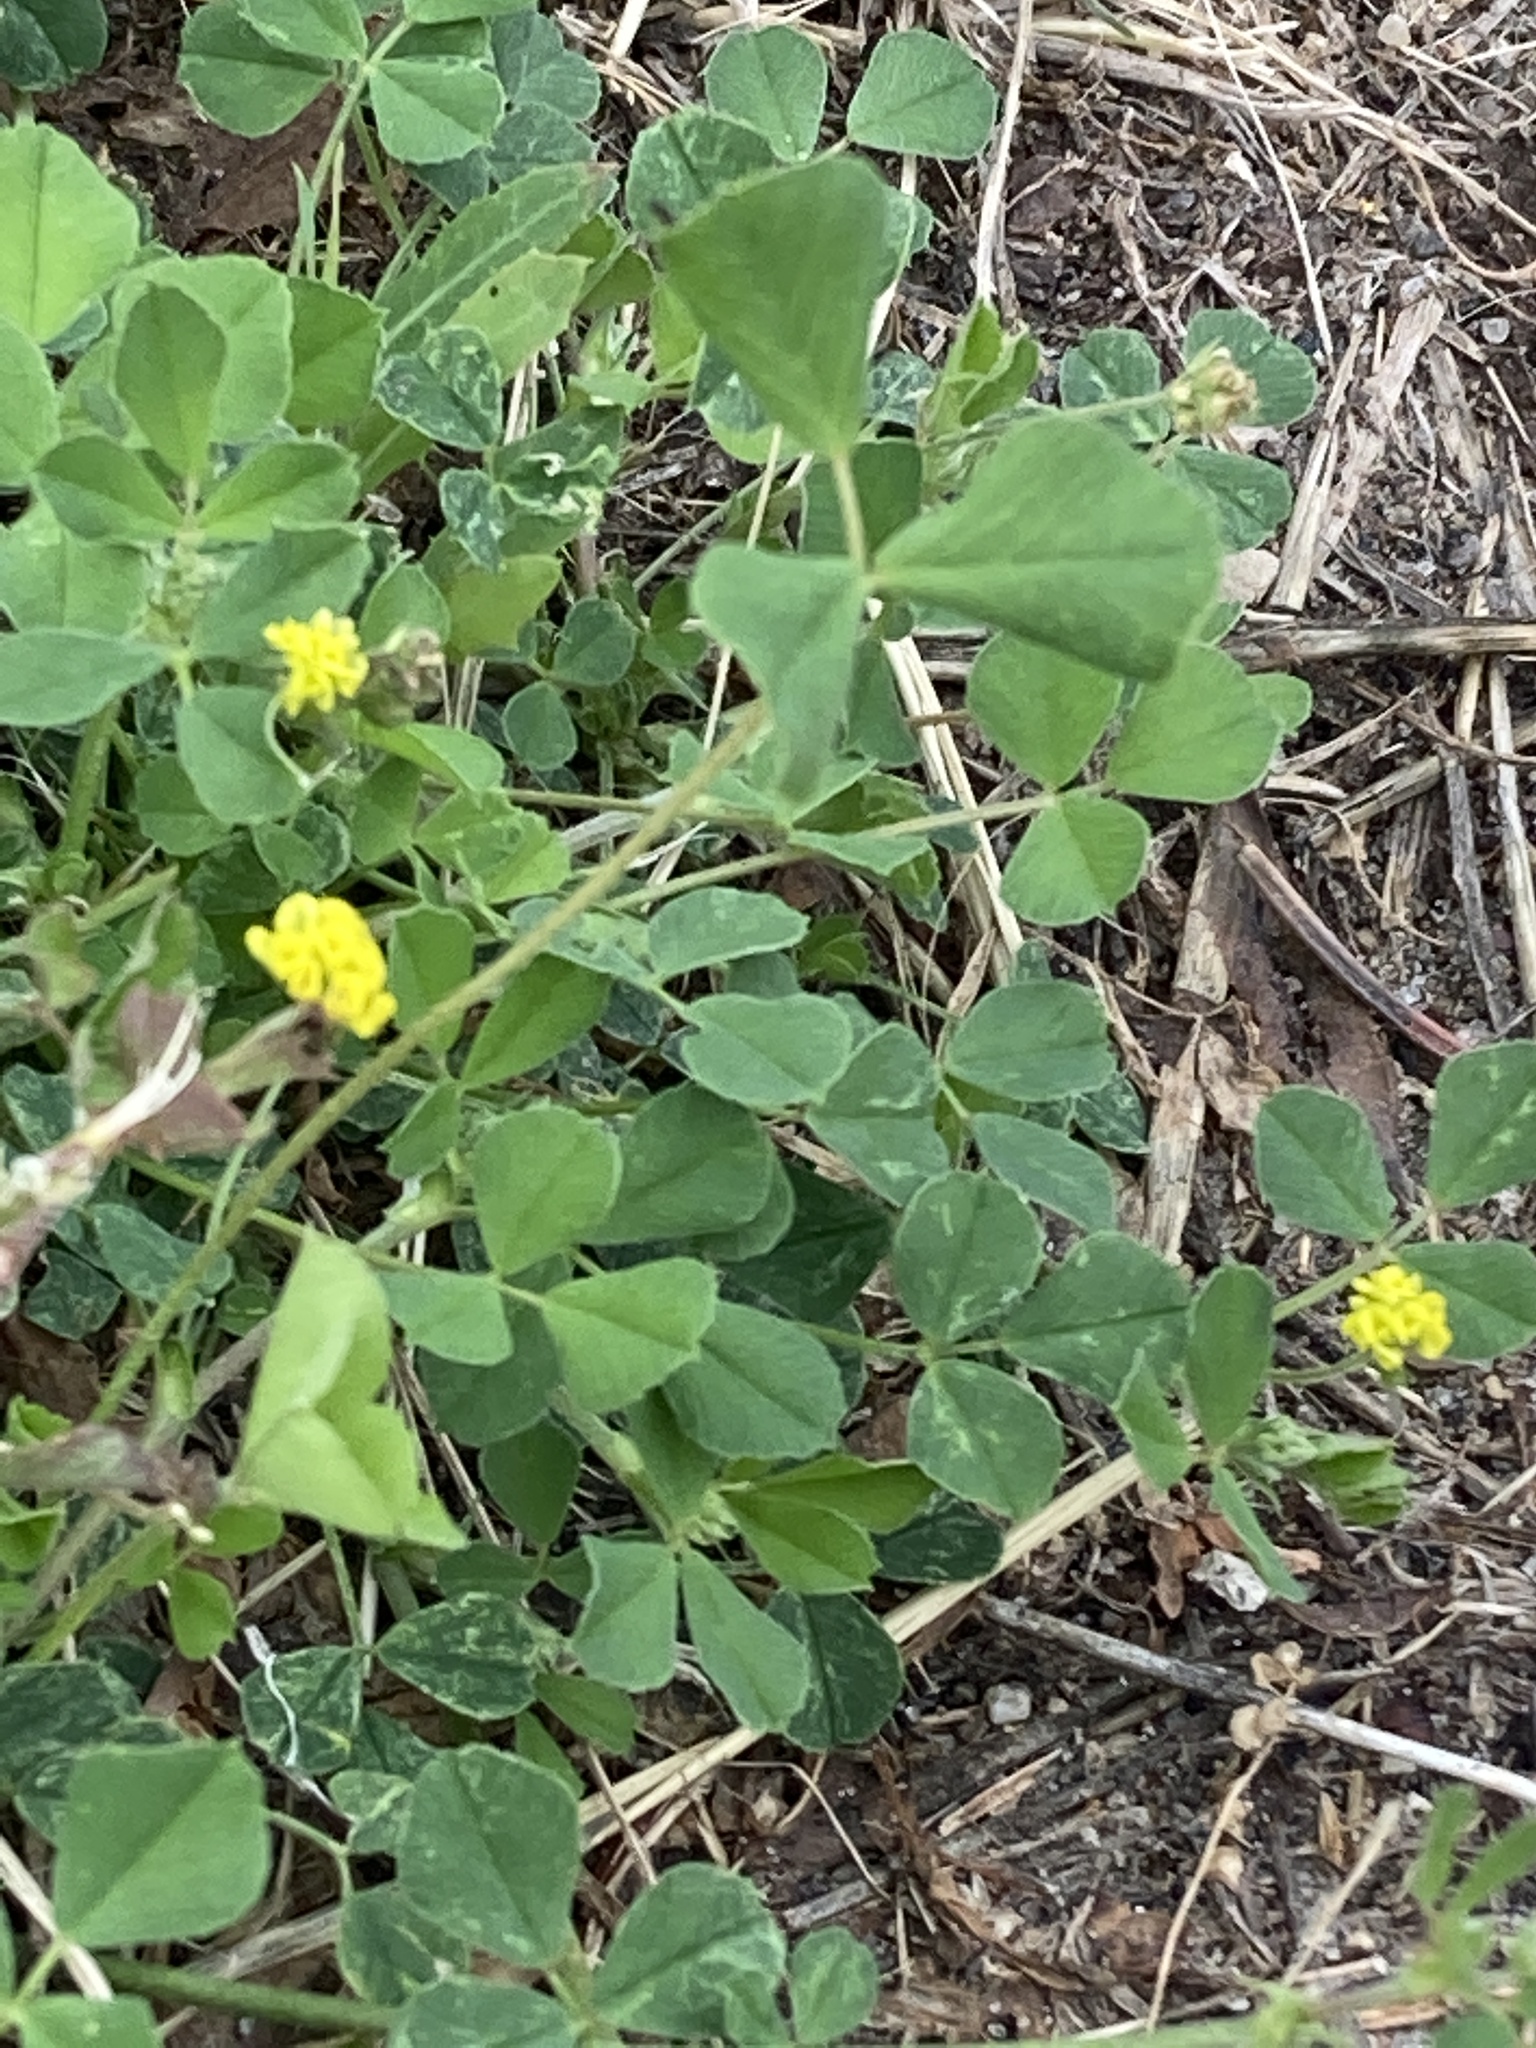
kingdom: Plantae
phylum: Tracheophyta
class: Magnoliopsida
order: Fabales
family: Fabaceae
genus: Medicago
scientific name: Medicago lupulina
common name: Black medick
